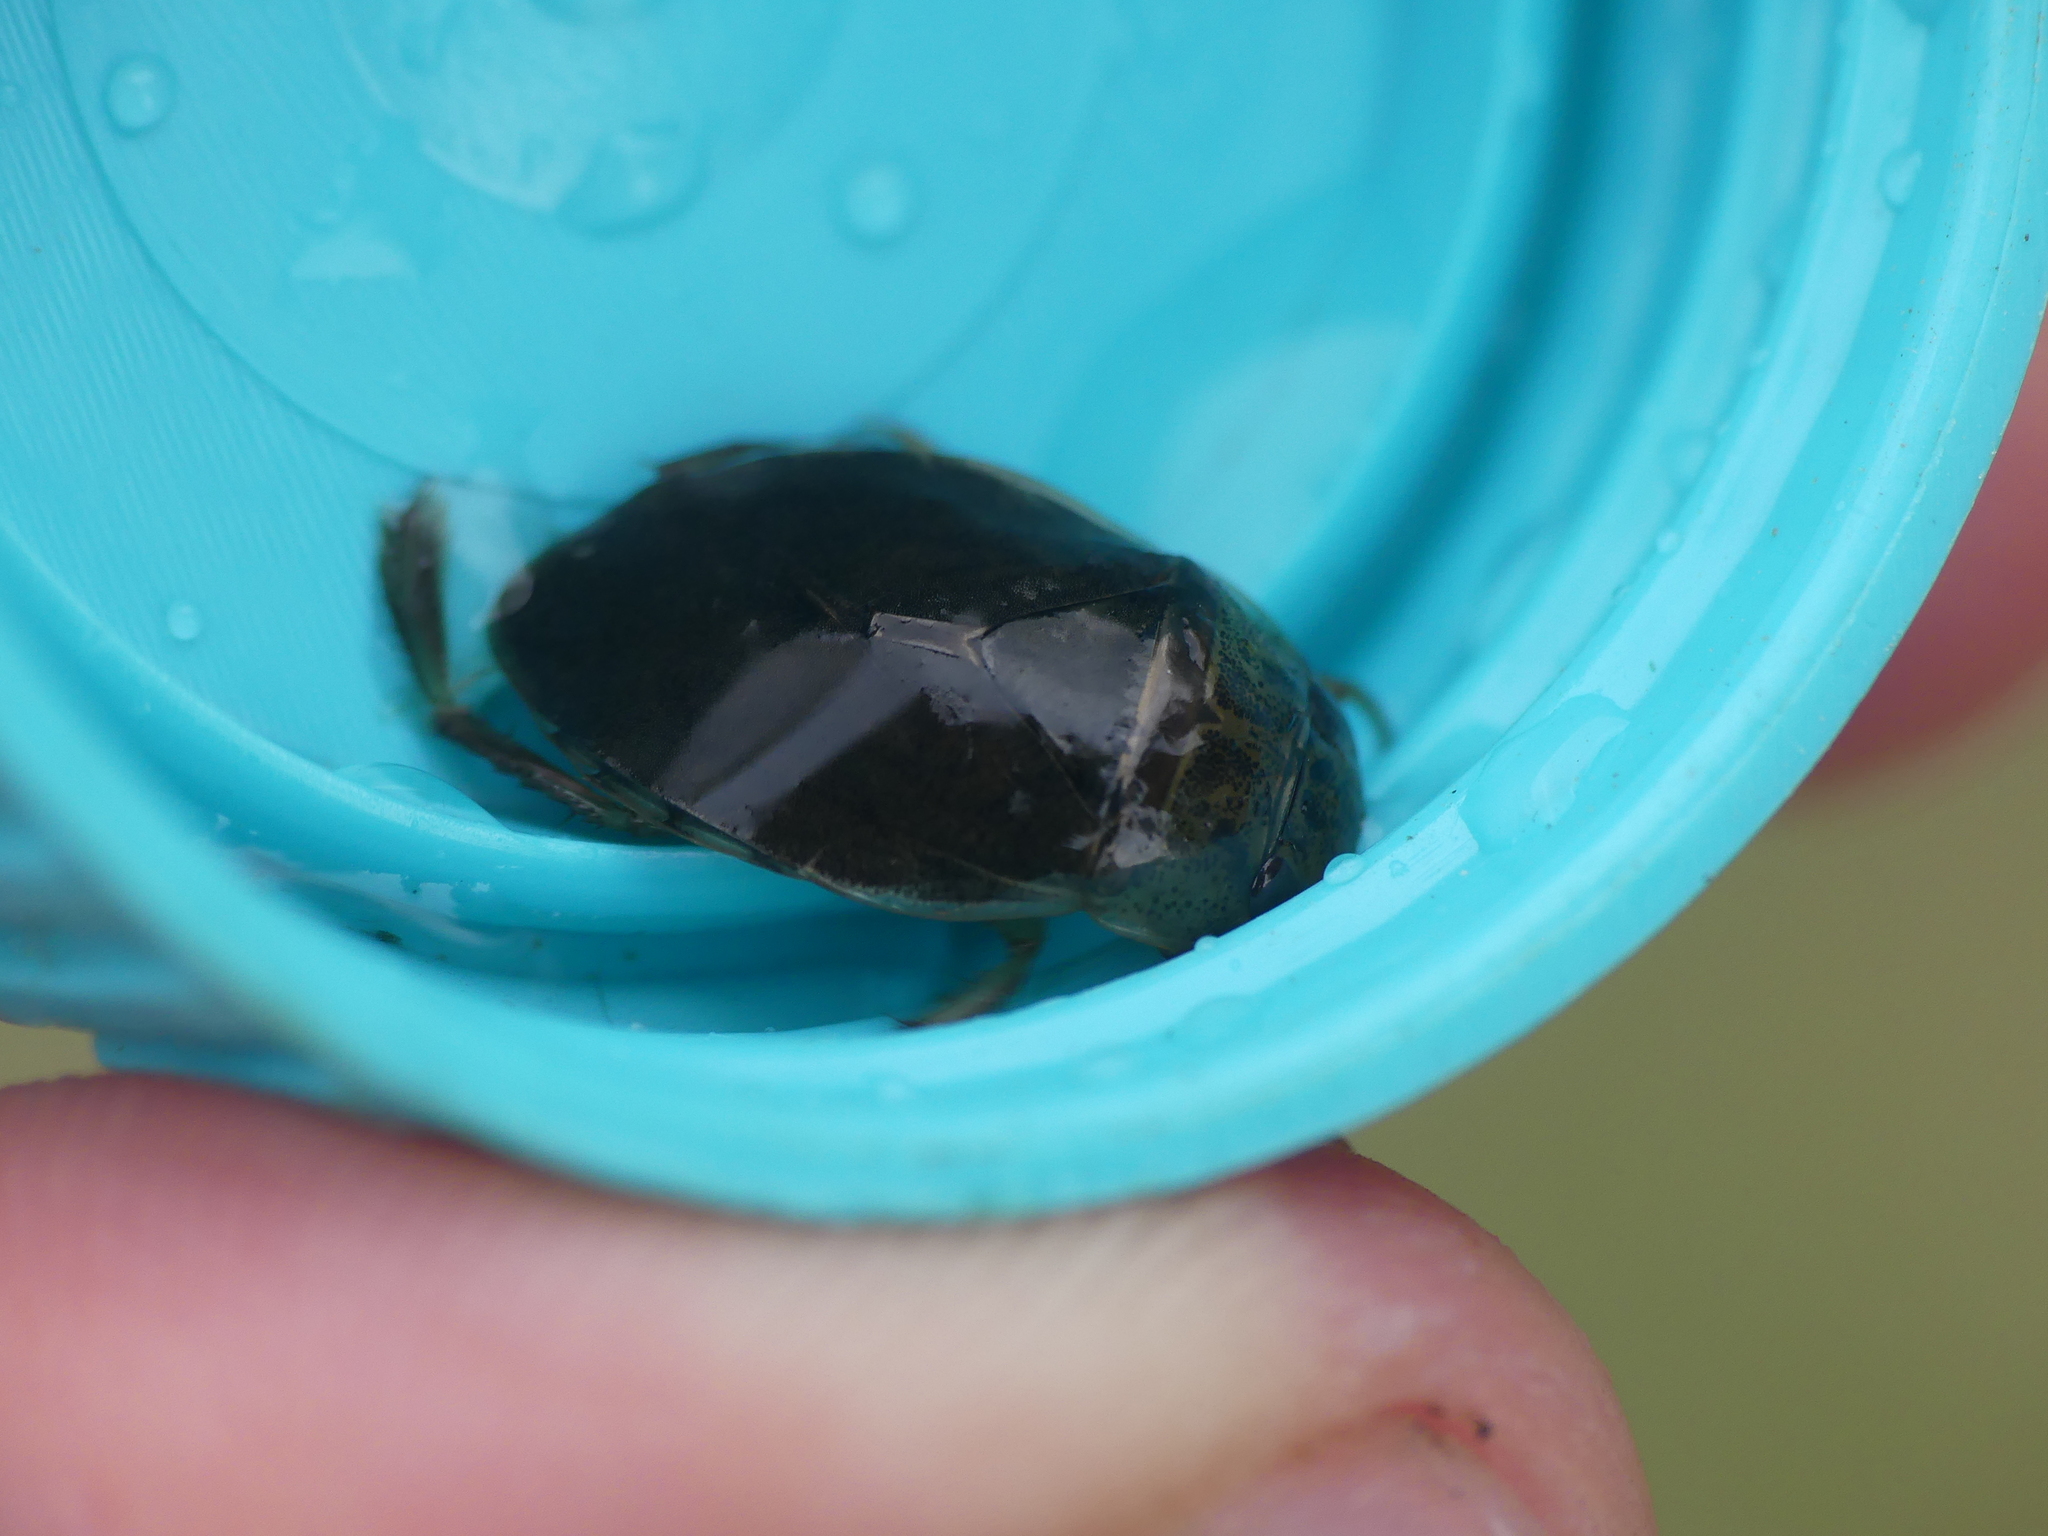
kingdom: Animalia
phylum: Arthropoda
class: Insecta
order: Hemiptera
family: Naucoridae
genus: Ilyocoris
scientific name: Ilyocoris cimicoides
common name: Saucer bugs
